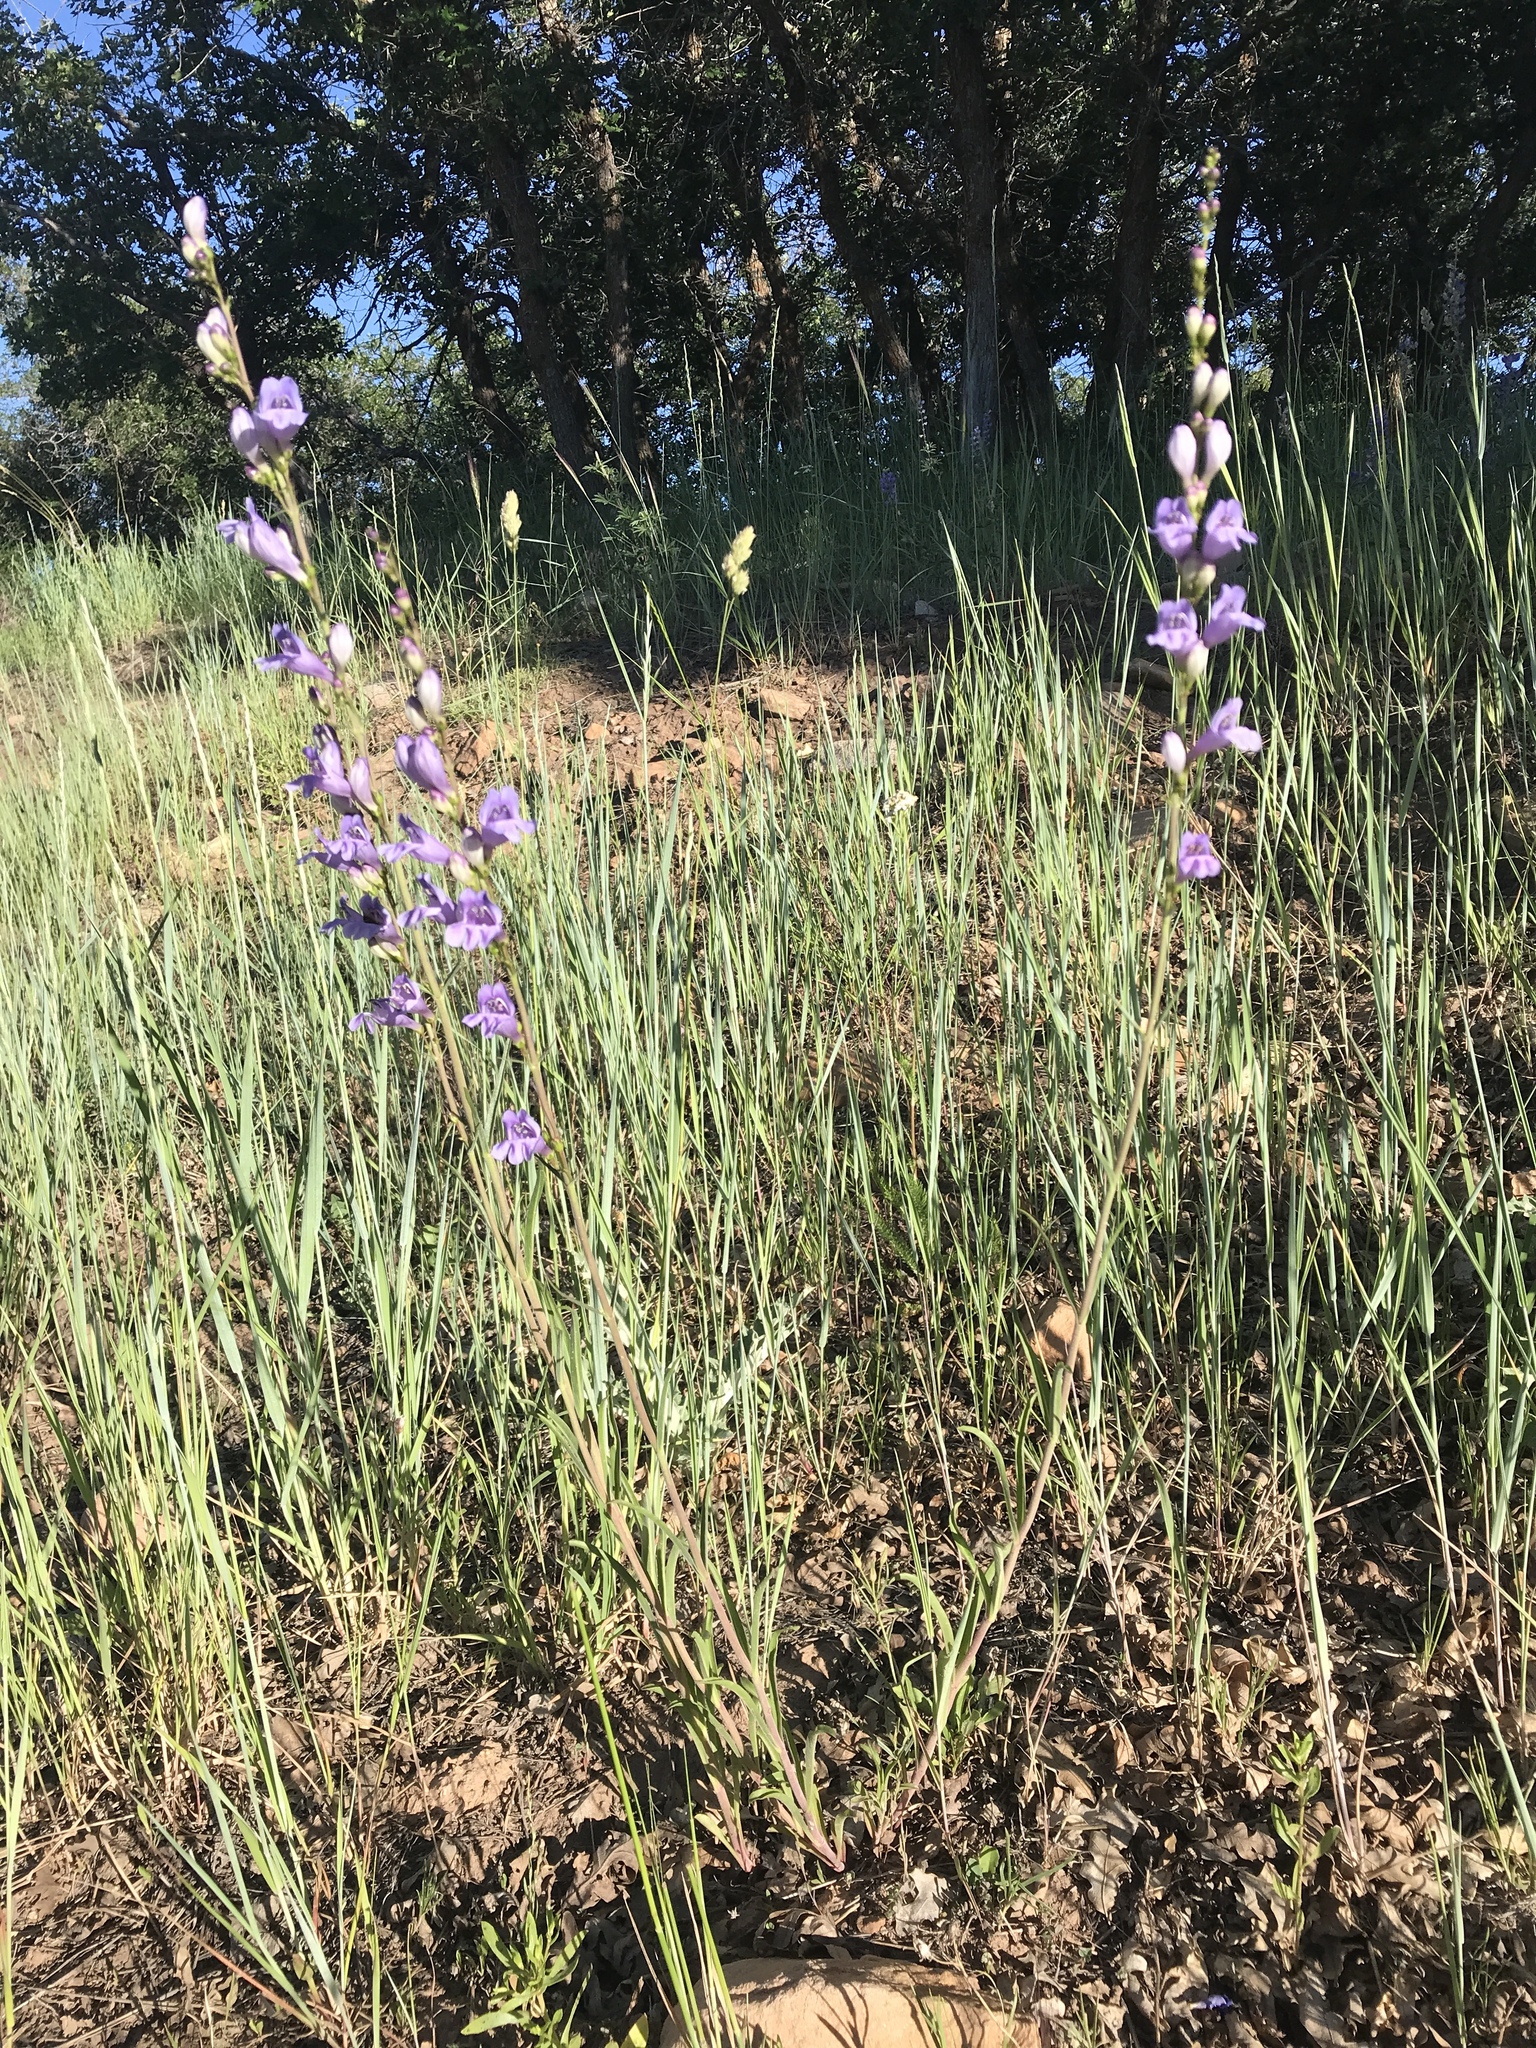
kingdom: Plantae
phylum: Tracheophyta
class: Magnoliopsida
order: Lamiales
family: Plantaginaceae
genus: Penstemon
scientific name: Penstemon comarrhenus
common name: Dusty penstemon
